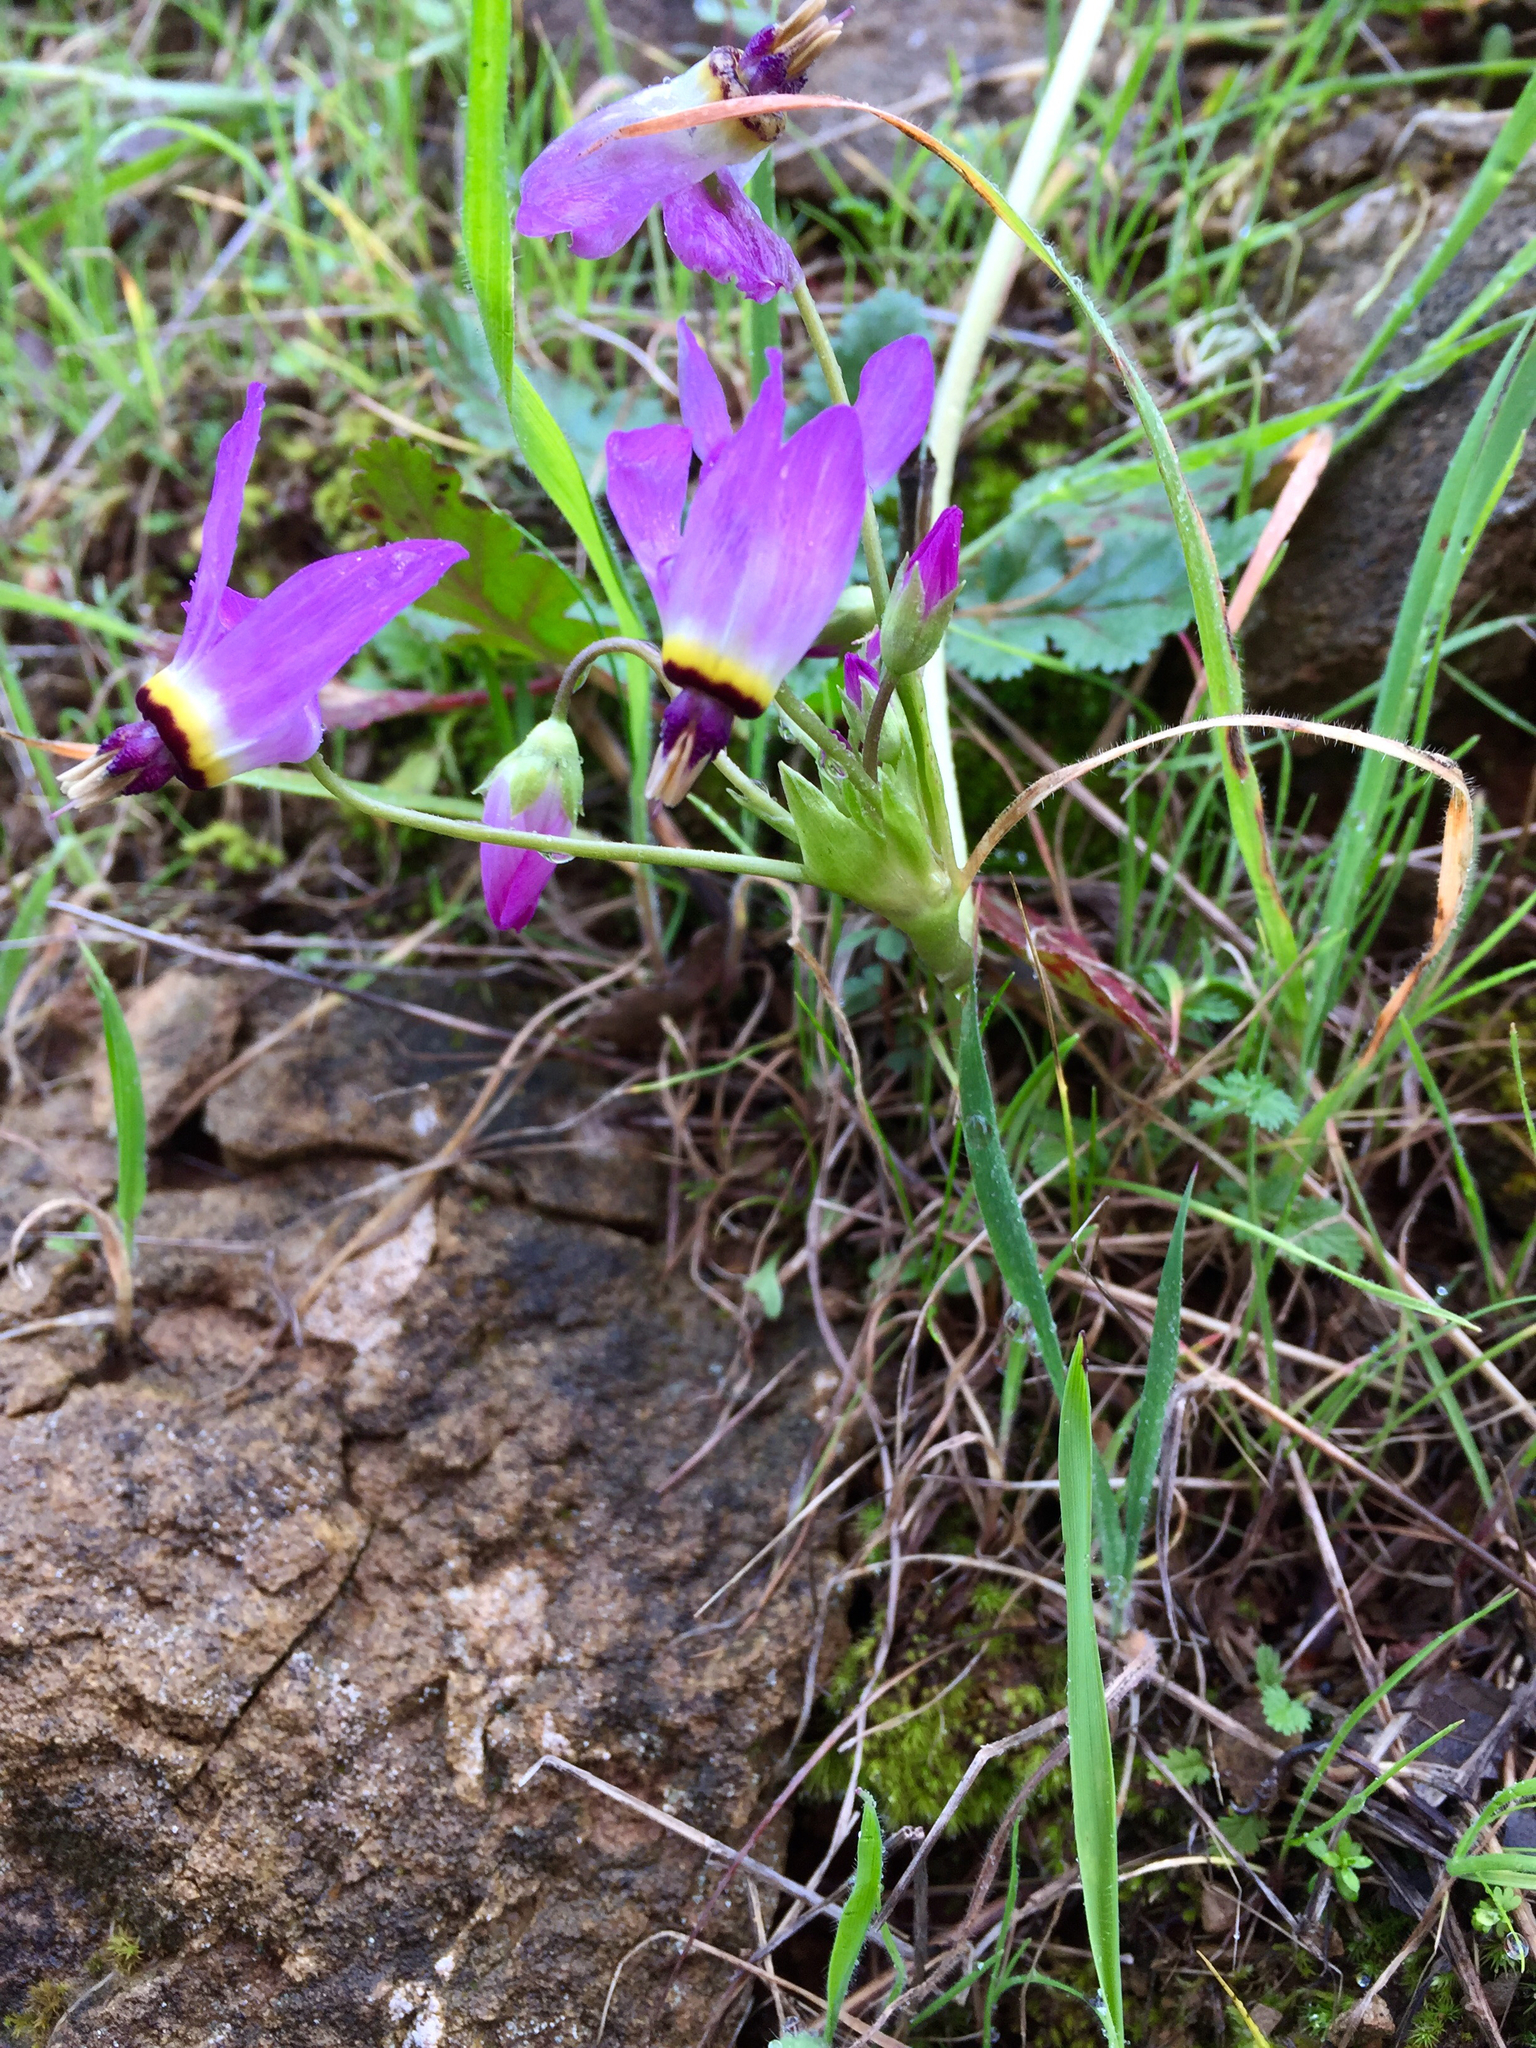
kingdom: Plantae
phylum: Tracheophyta
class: Magnoliopsida
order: Ericales
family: Primulaceae
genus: Dodecatheon
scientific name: Dodecatheon clevelandii
